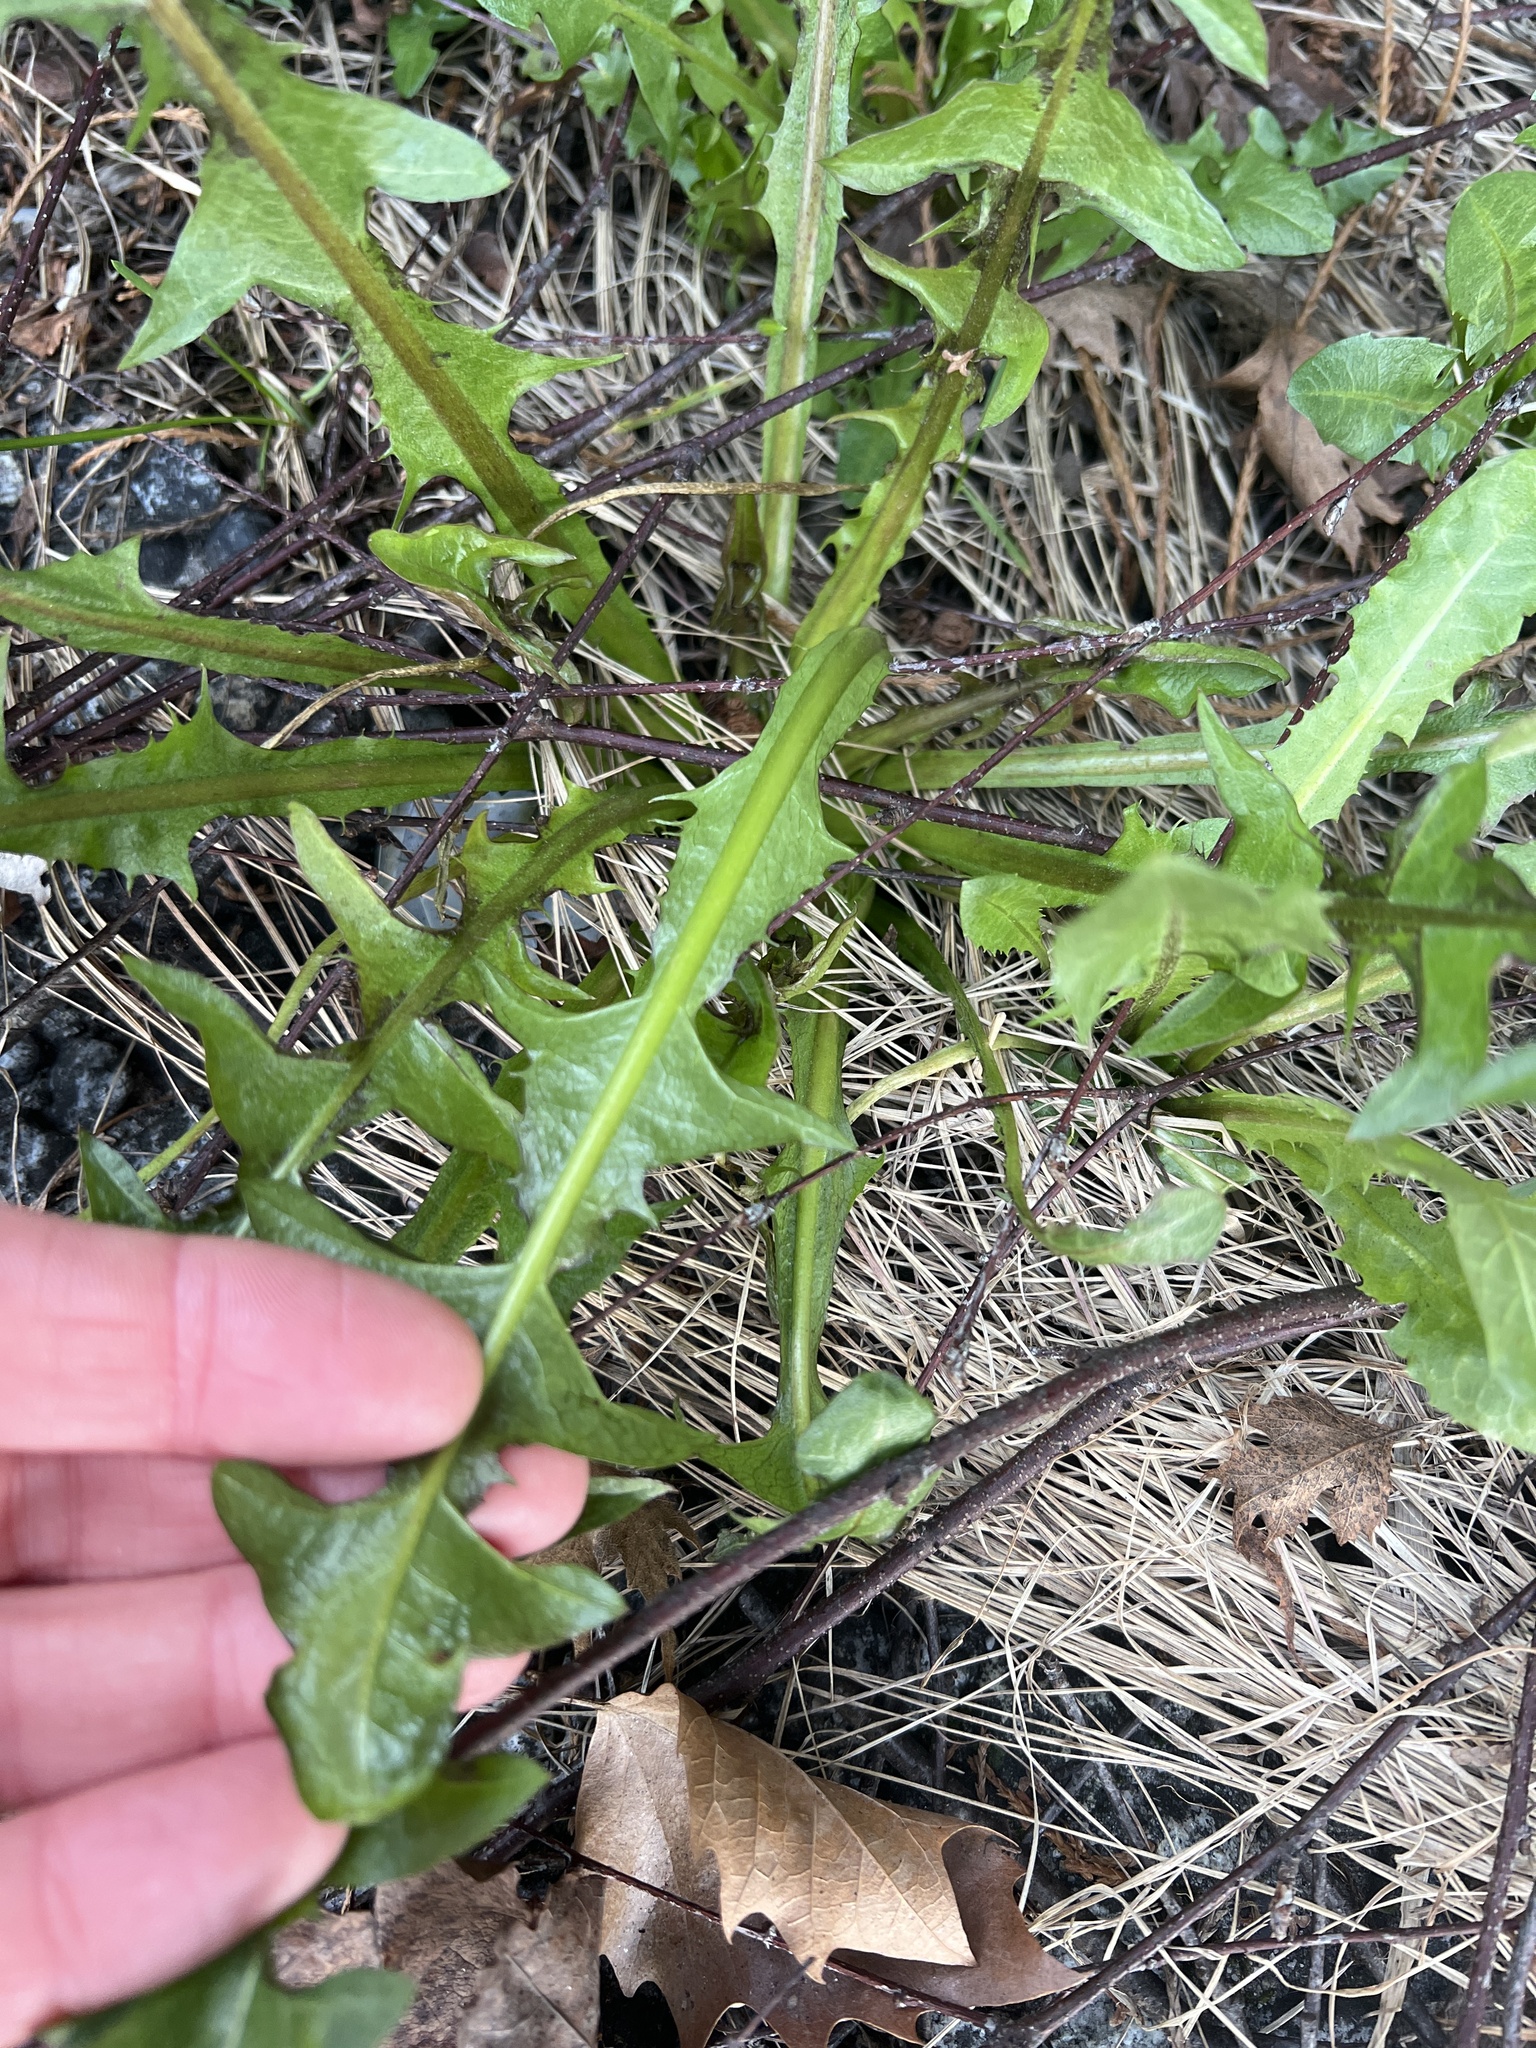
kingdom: Plantae
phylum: Tracheophyta
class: Magnoliopsida
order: Asterales
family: Asteraceae
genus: Taraxacum
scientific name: Taraxacum officinale
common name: Common dandelion
